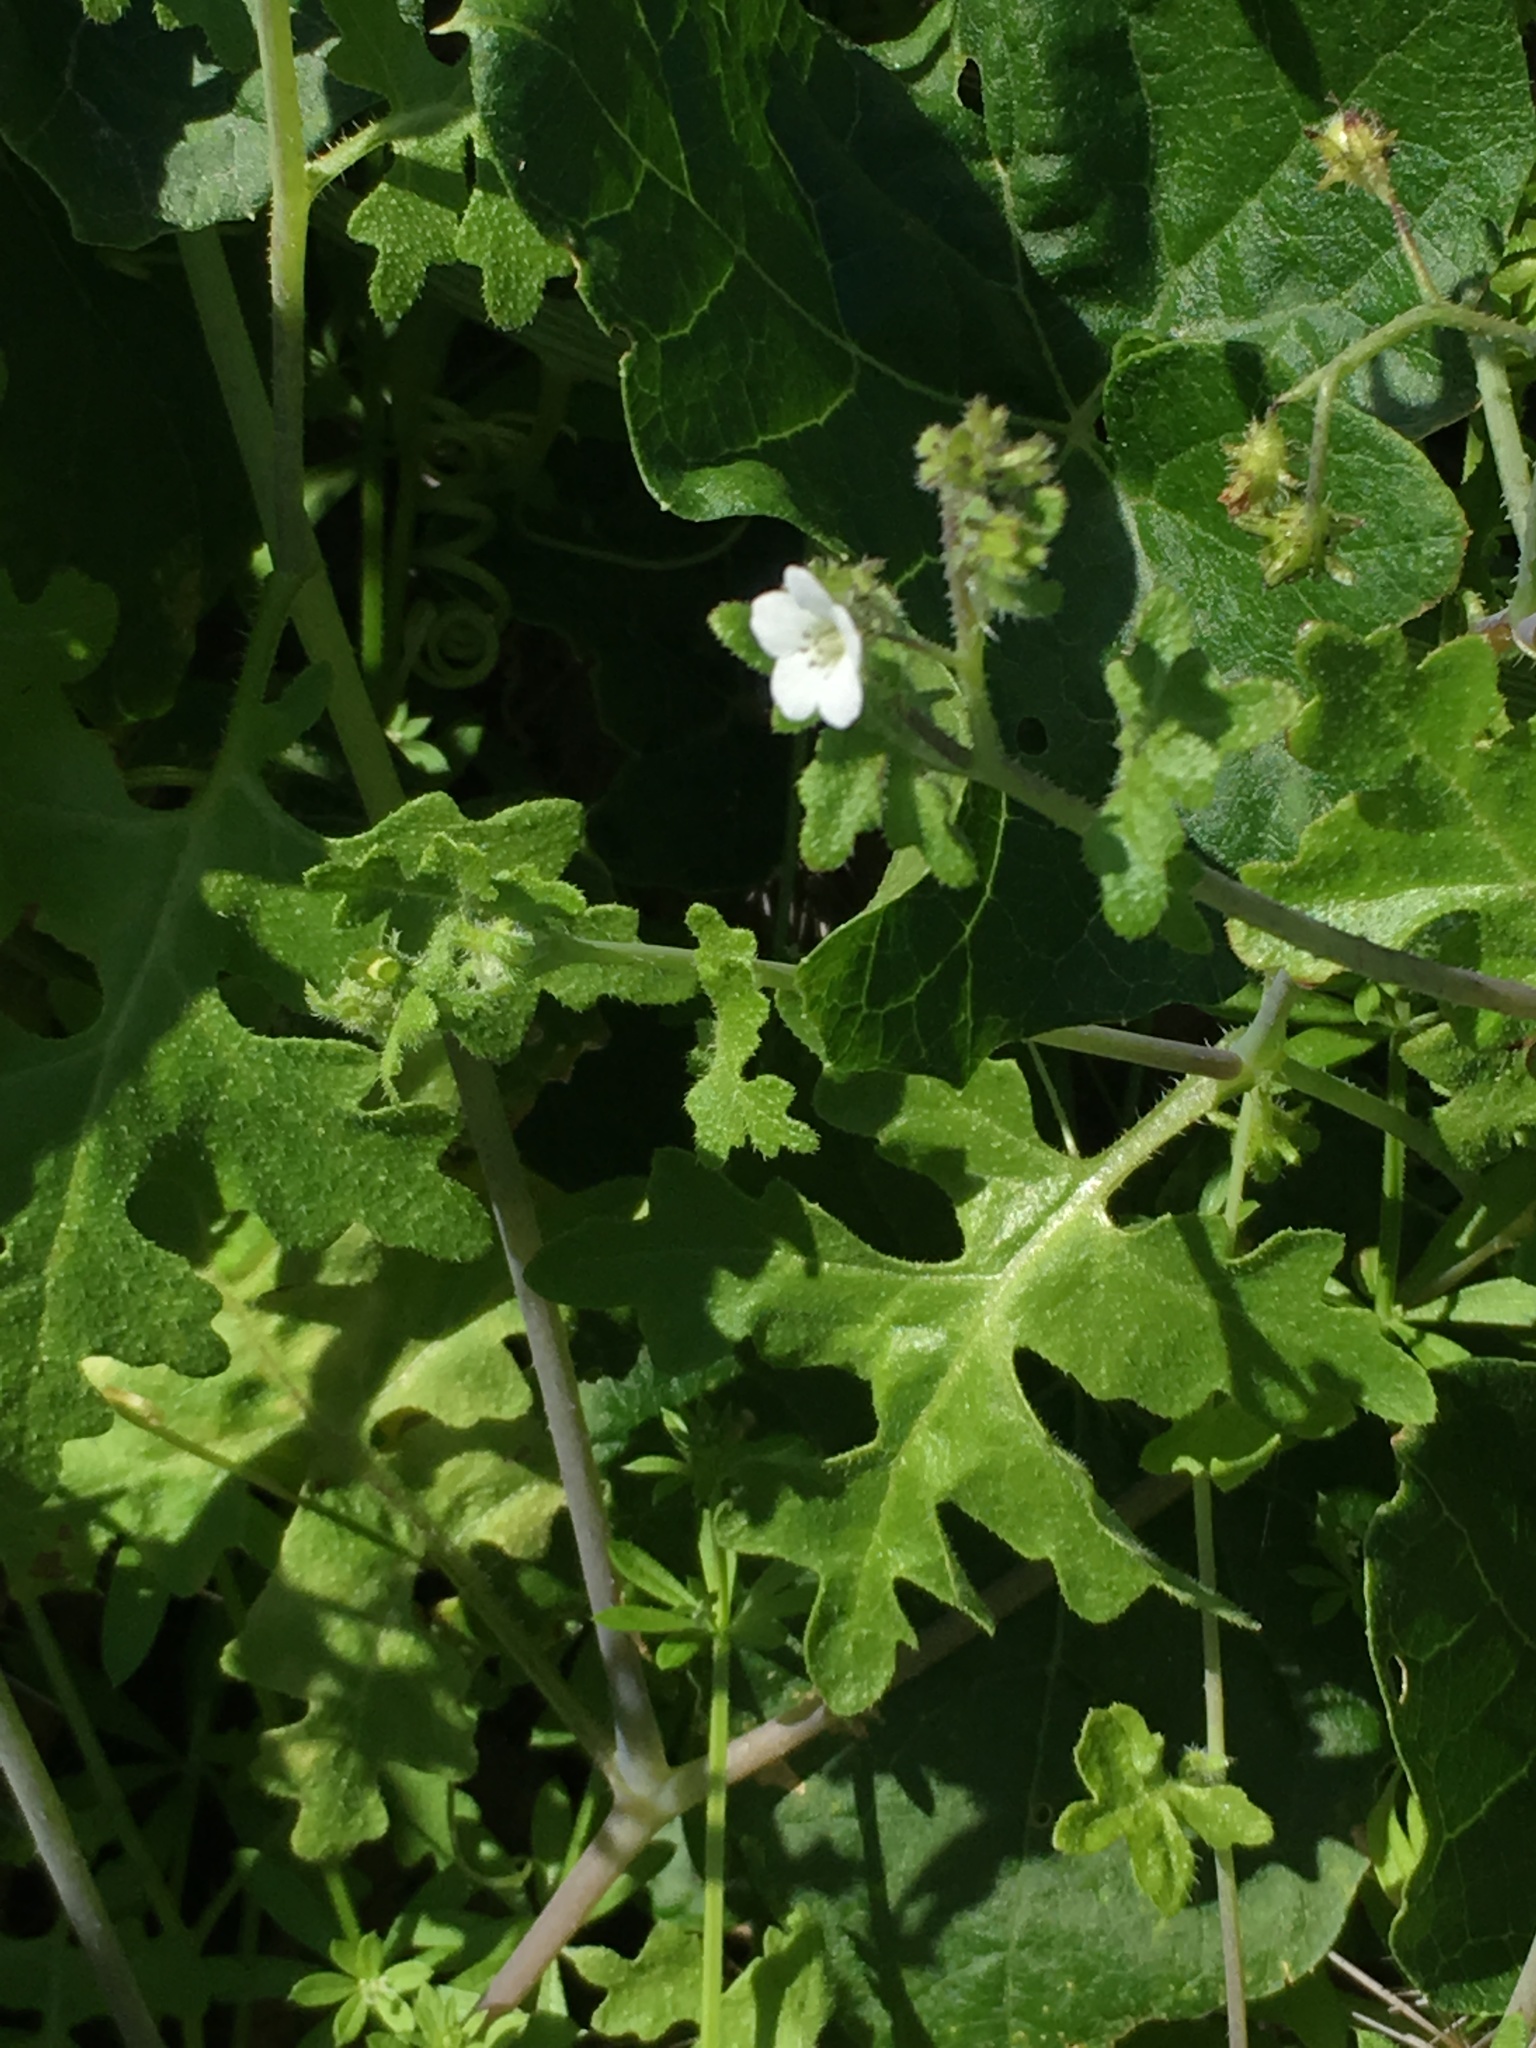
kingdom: Plantae
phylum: Tracheophyta
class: Magnoliopsida
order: Boraginales
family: Hydrophyllaceae
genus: Pholistoma
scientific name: Pholistoma racemosum
